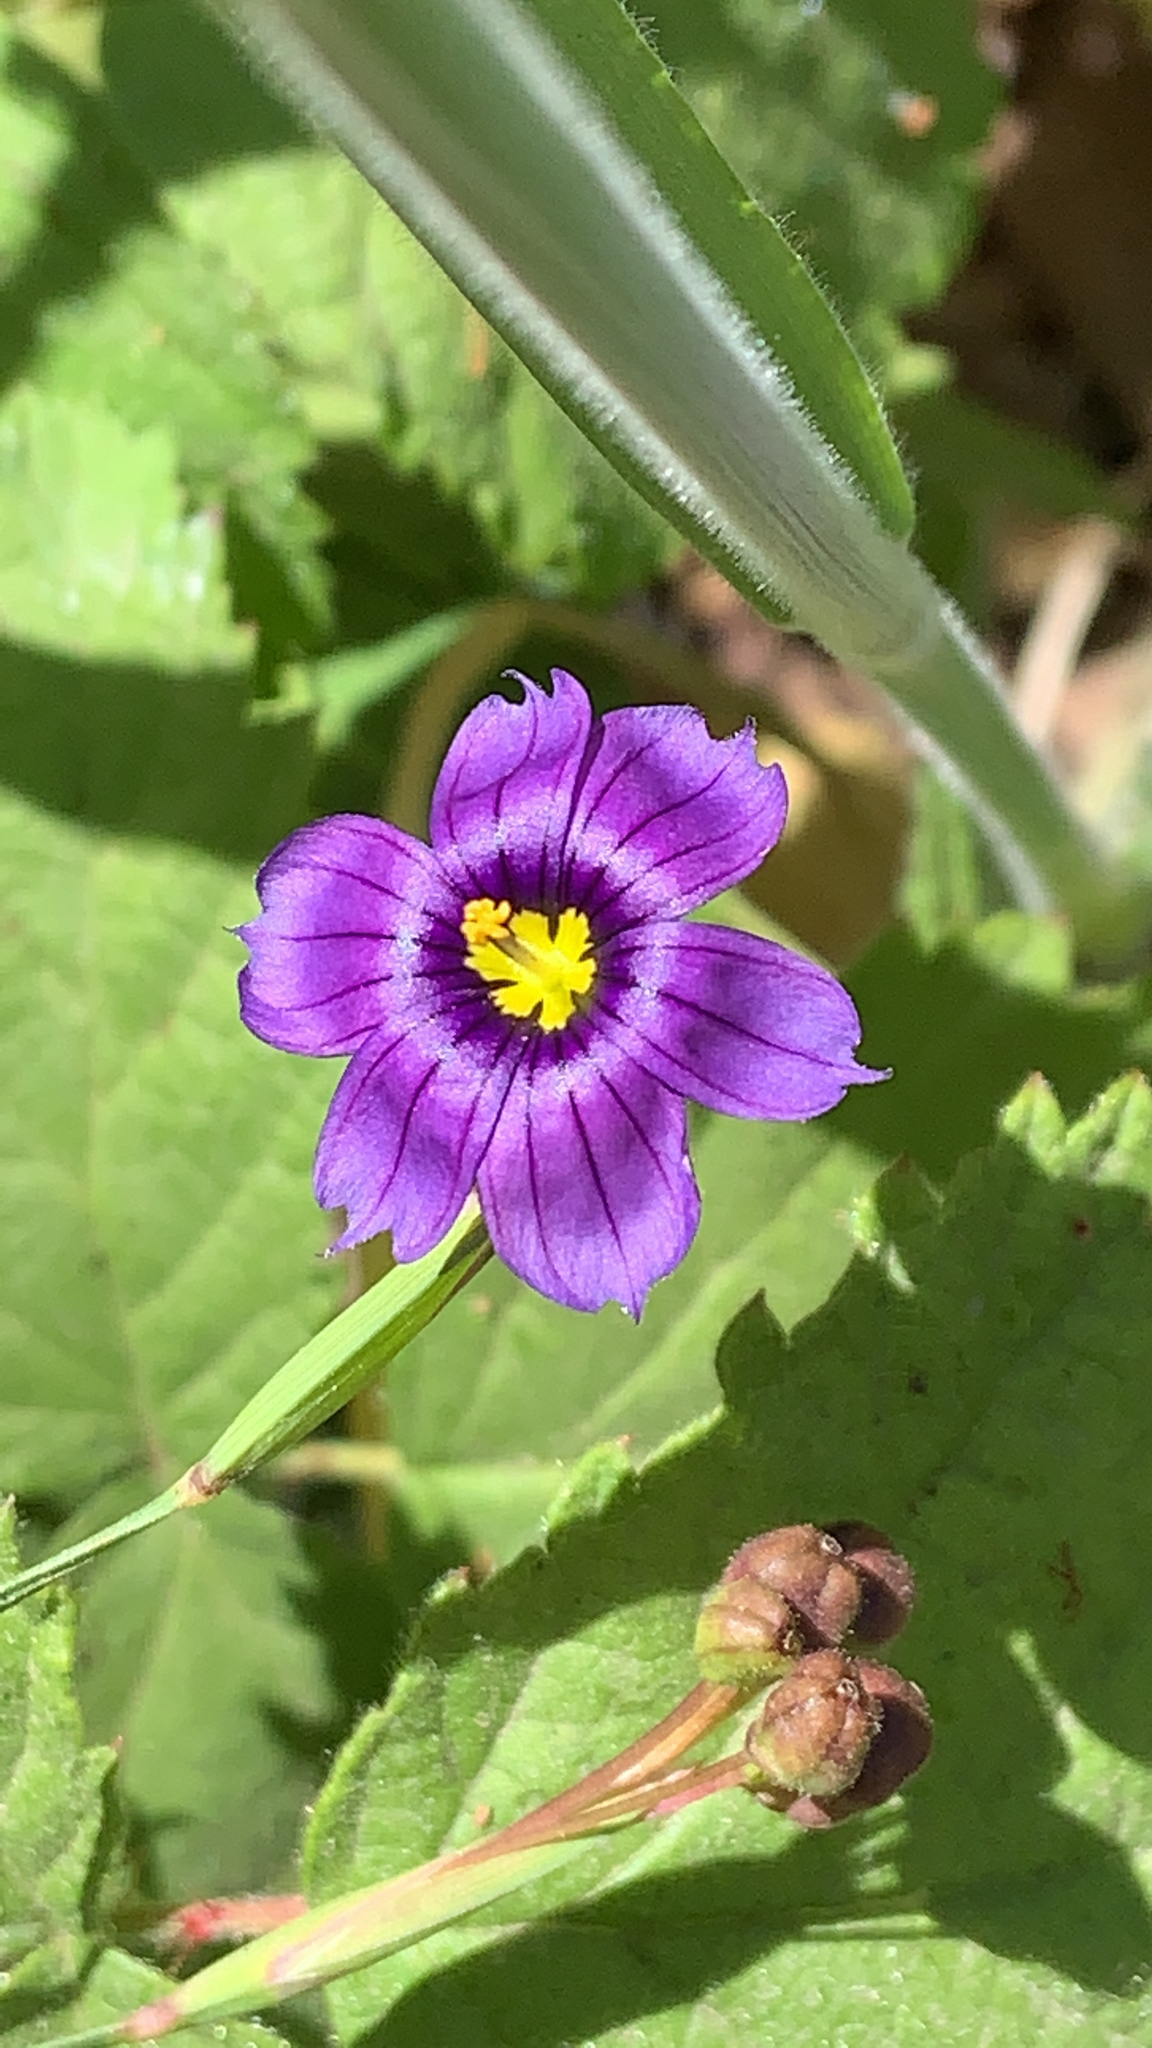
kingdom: Plantae
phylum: Tracheophyta
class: Liliopsida
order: Asparagales
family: Iridaceae
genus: Sisyrinchium
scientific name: Sisyrinchium bellum
